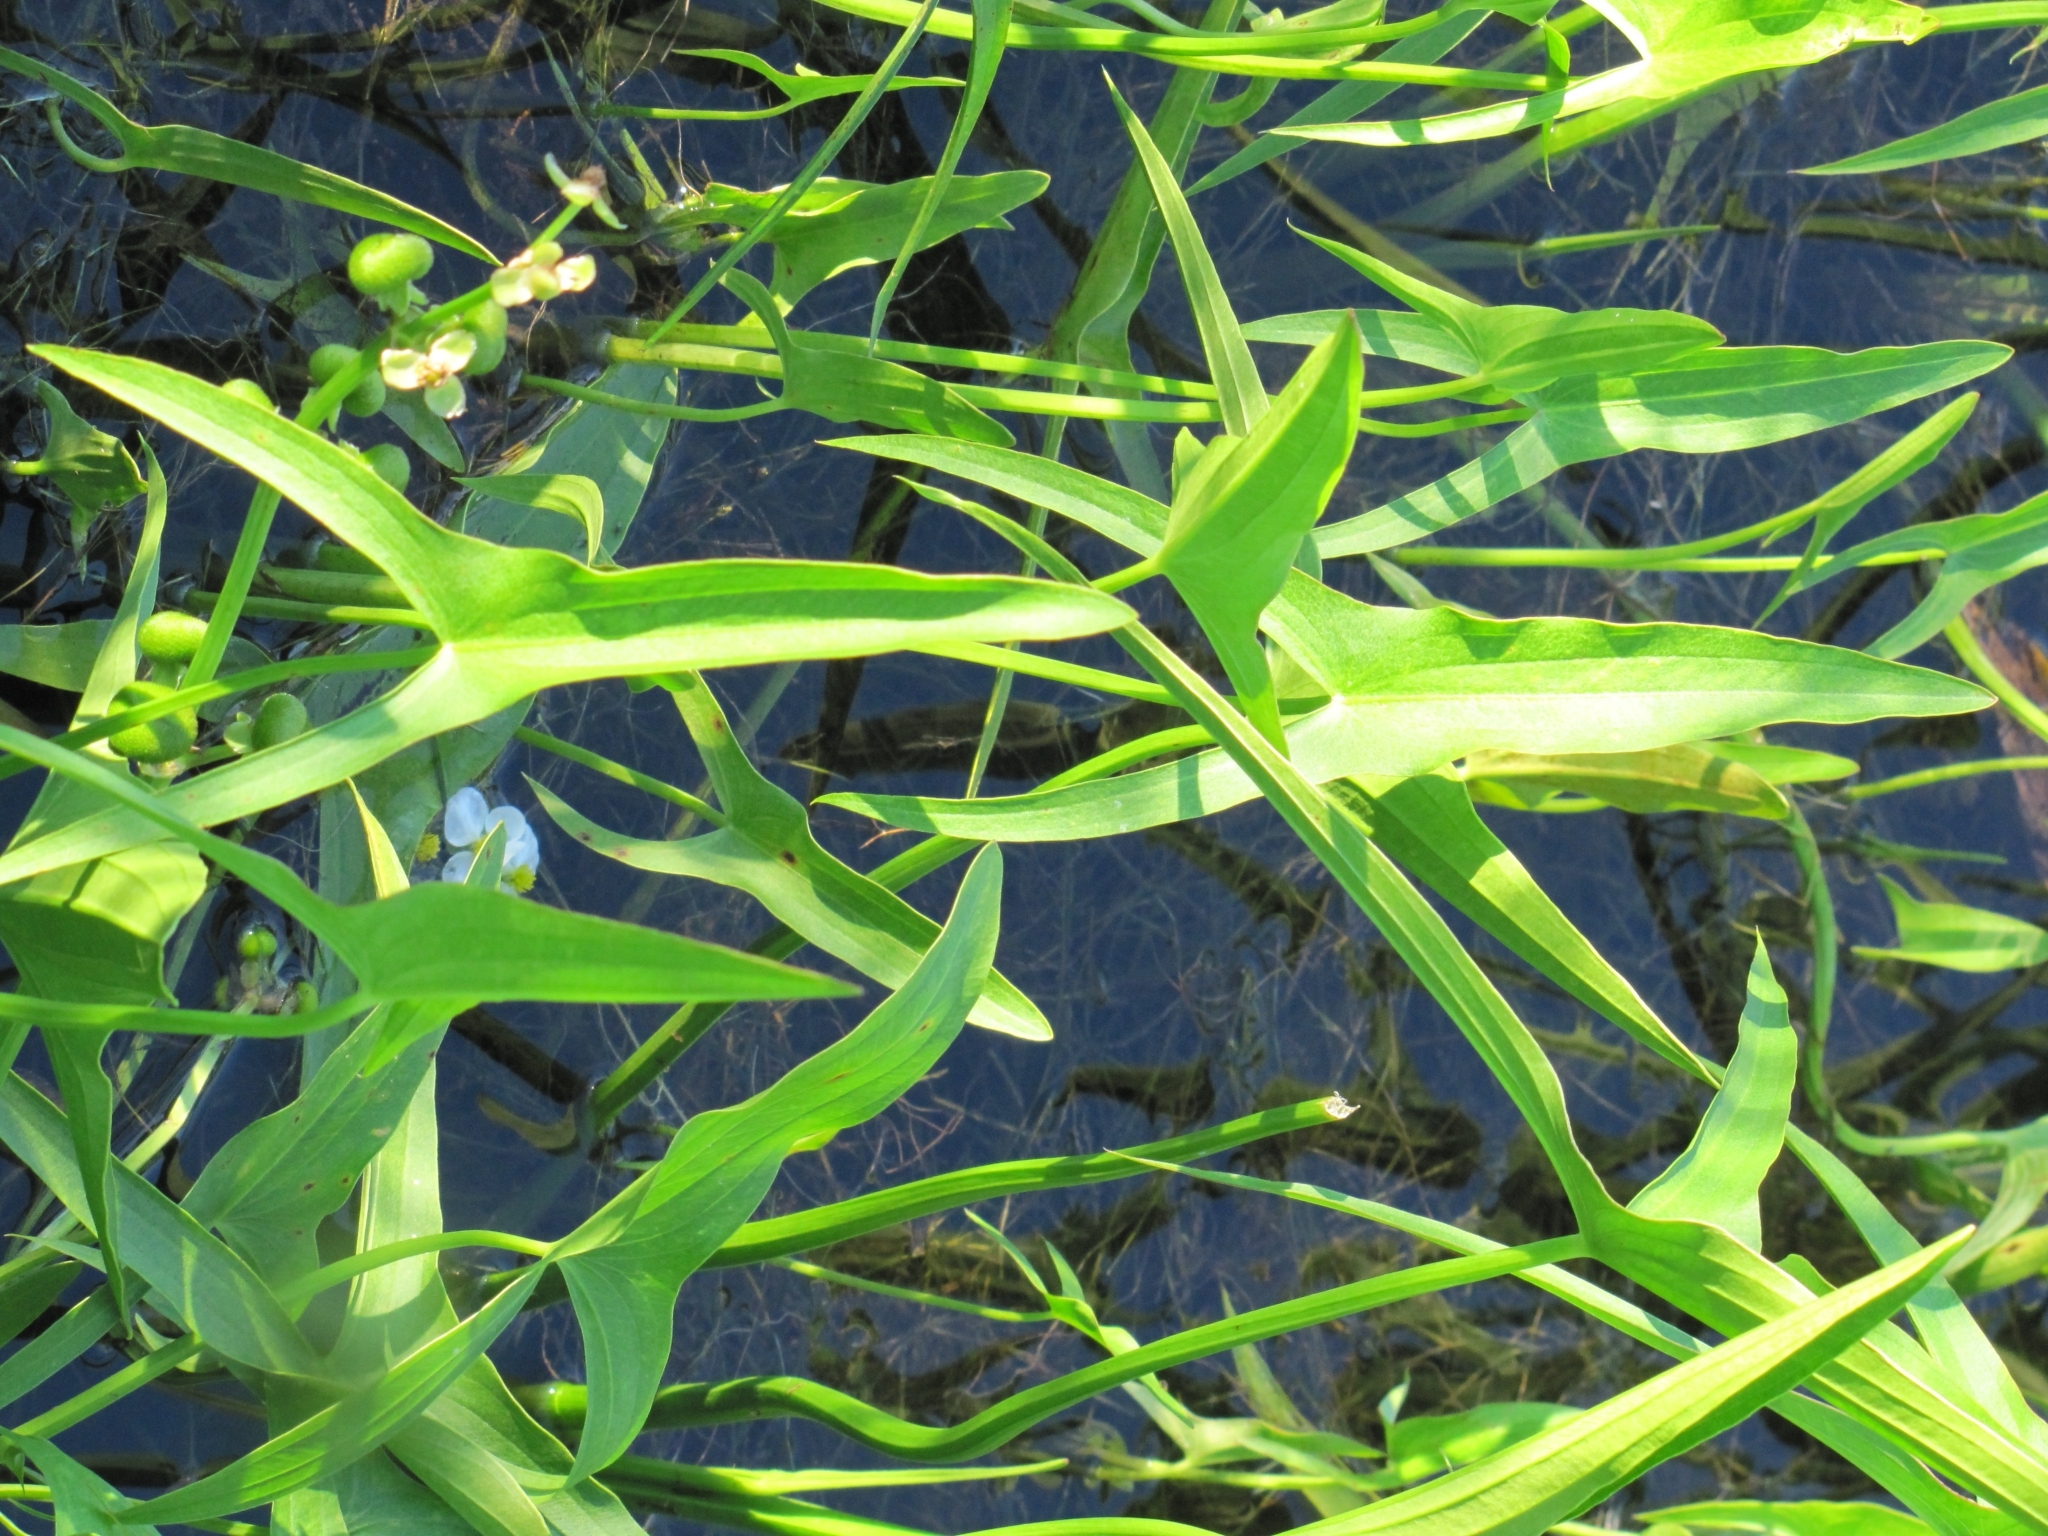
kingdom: Plantae
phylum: Tracheophyta
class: Liliopsida
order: Alismatales
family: Alismataceae
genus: Sagittaria
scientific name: Sagittaria latifolia
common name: Duck-potato
